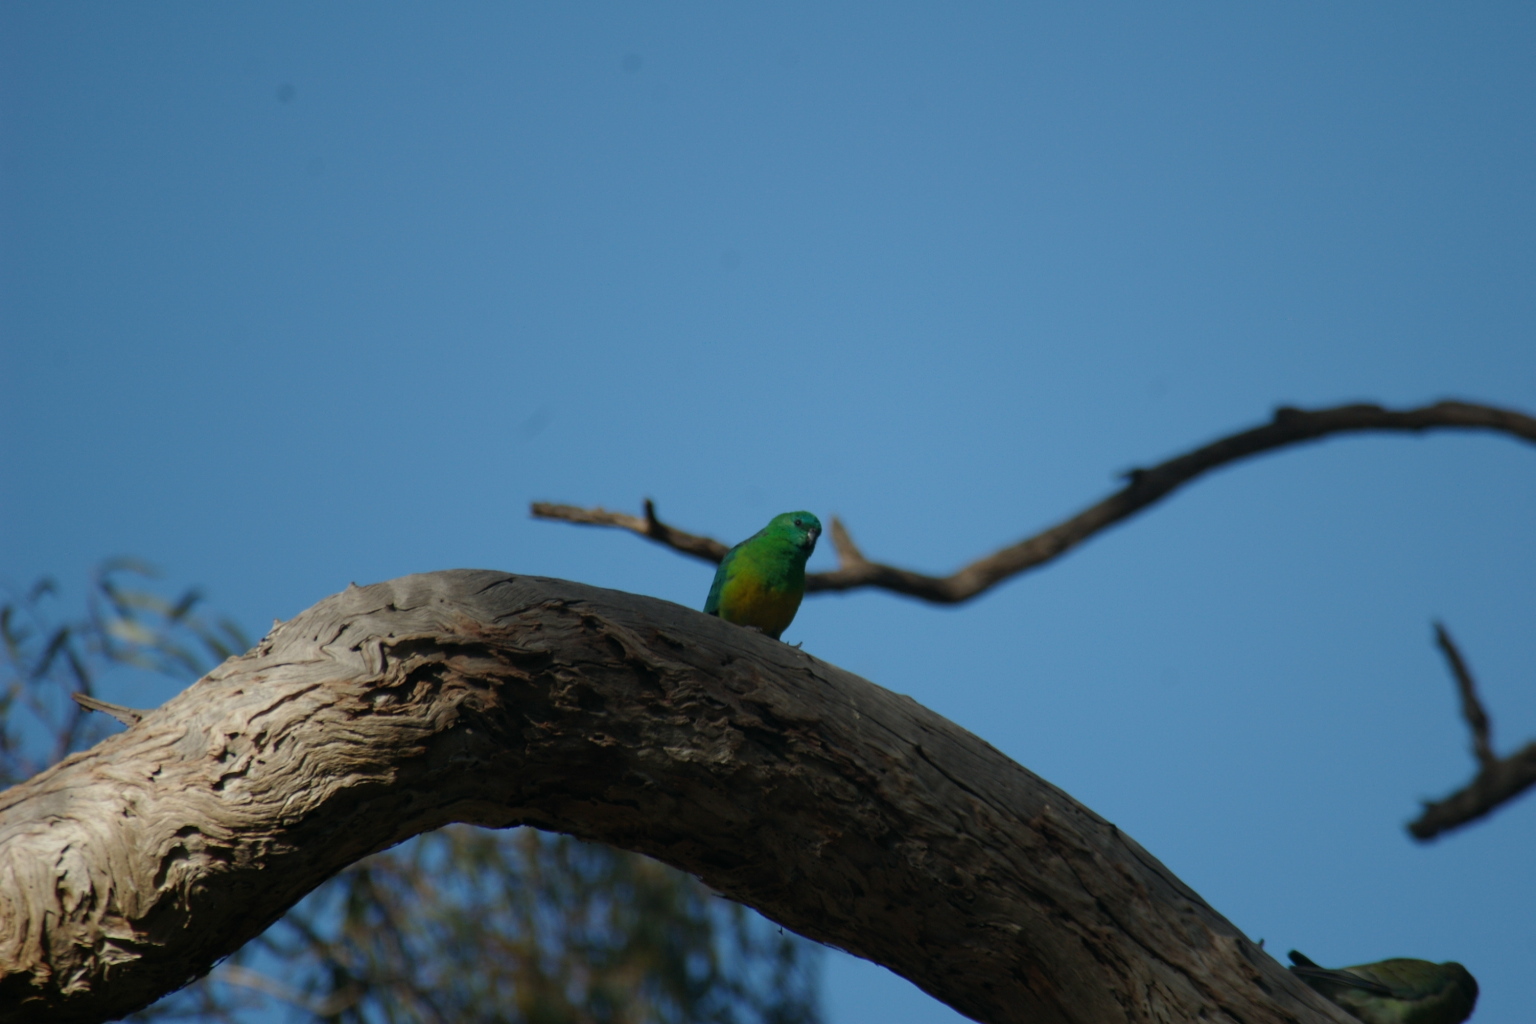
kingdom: Animalia
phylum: Chordata
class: Aves
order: Psittaciformes
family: Psittacidae
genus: Psephotus
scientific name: Psephotus haematonotus
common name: Red-rumped parrot
